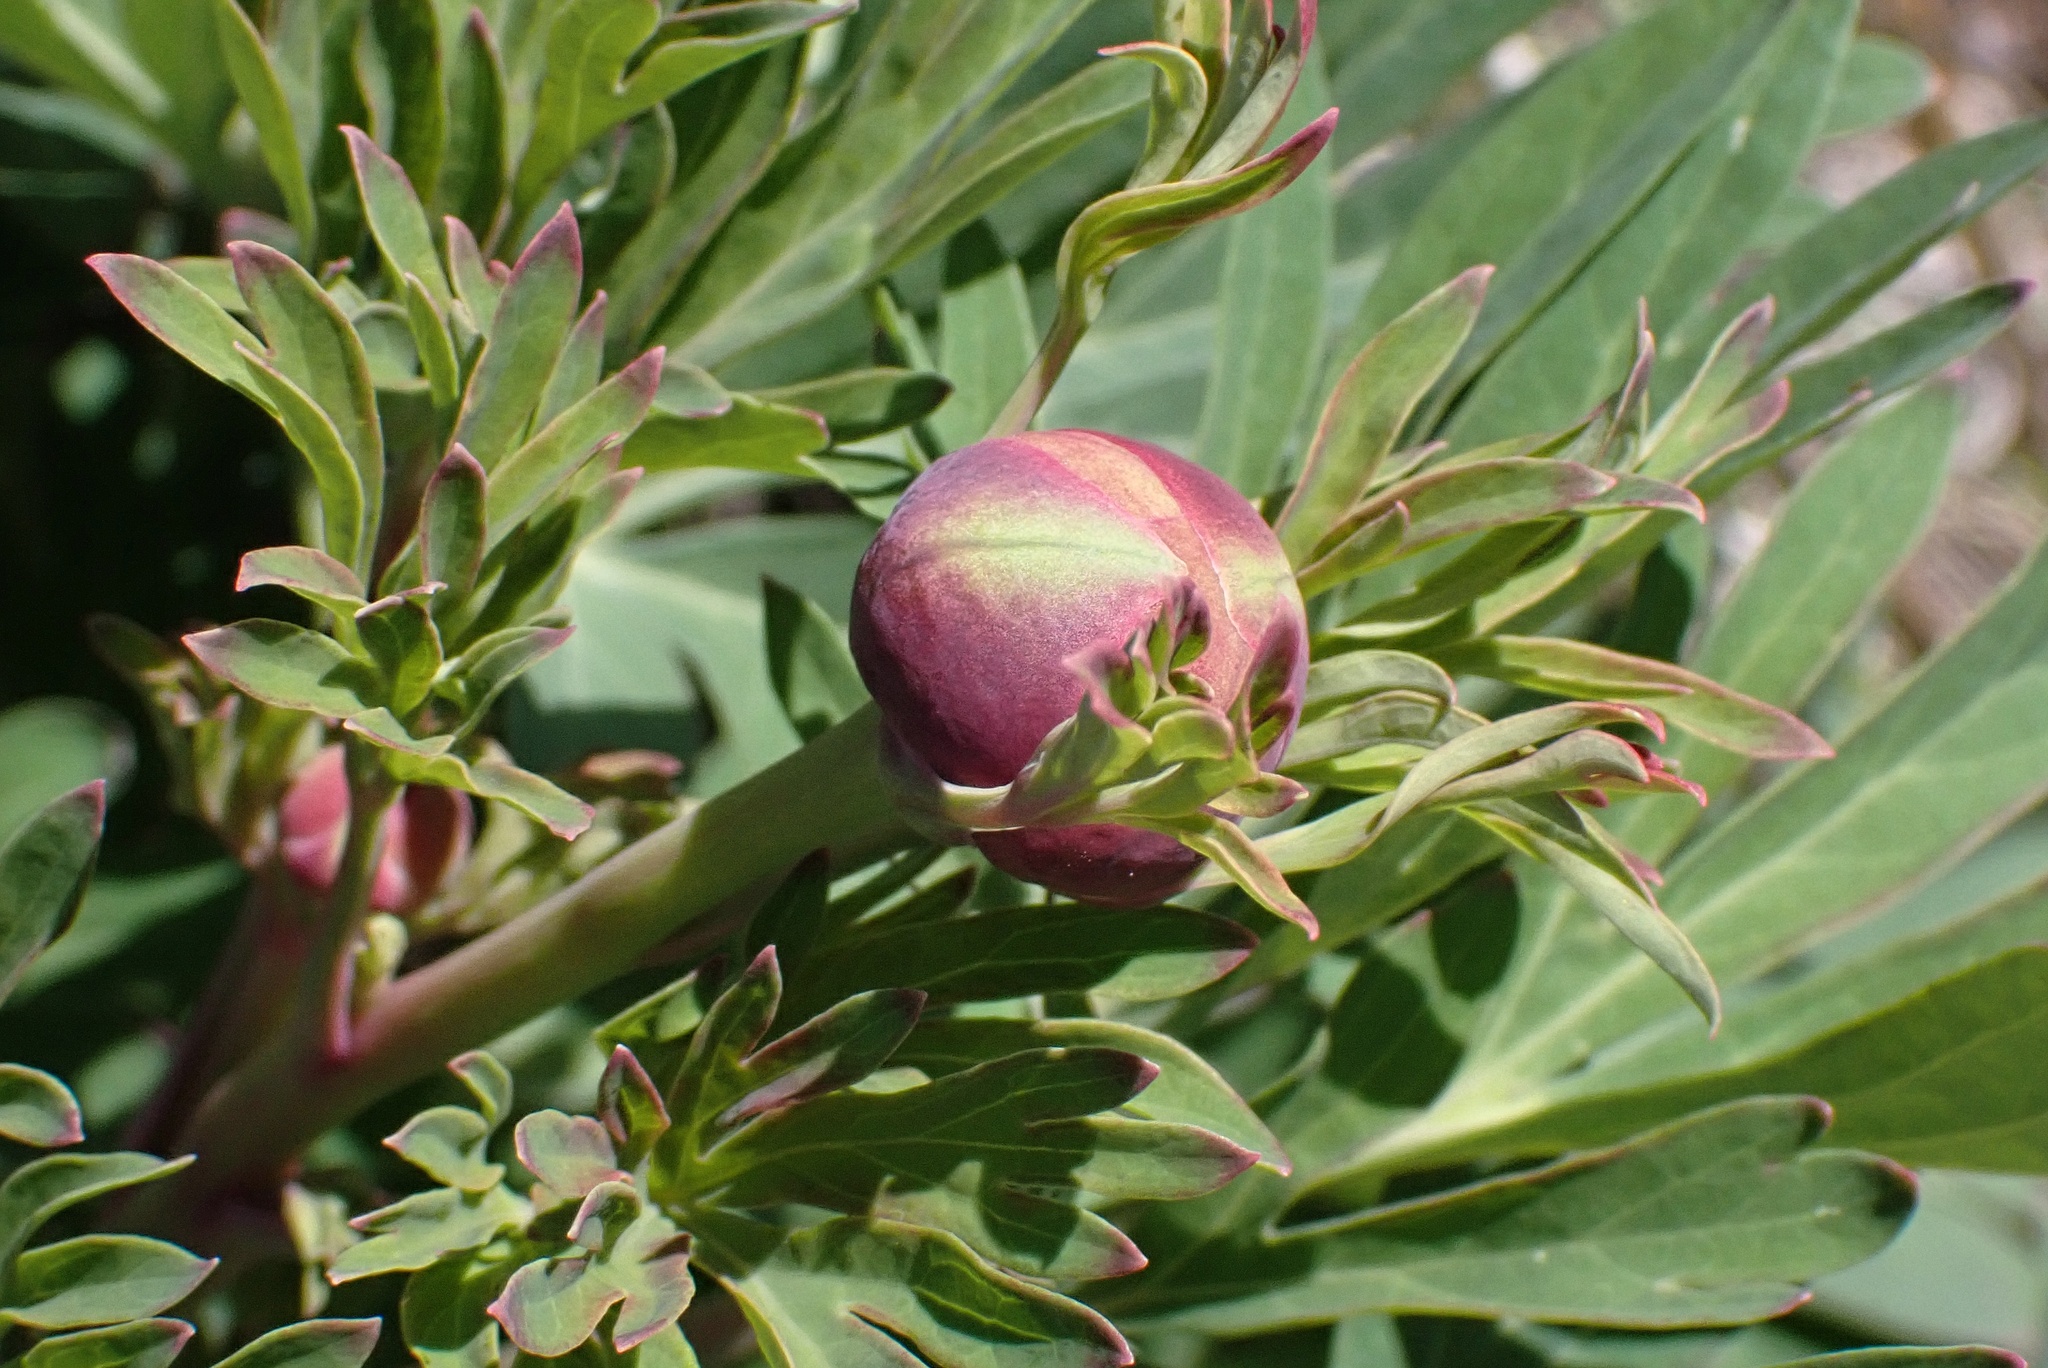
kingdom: Plantae
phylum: Tracheophyta
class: Magnoliopsida
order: Saxifragales
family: Paeoniaceae
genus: Paeonia
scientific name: Paeonia californica
